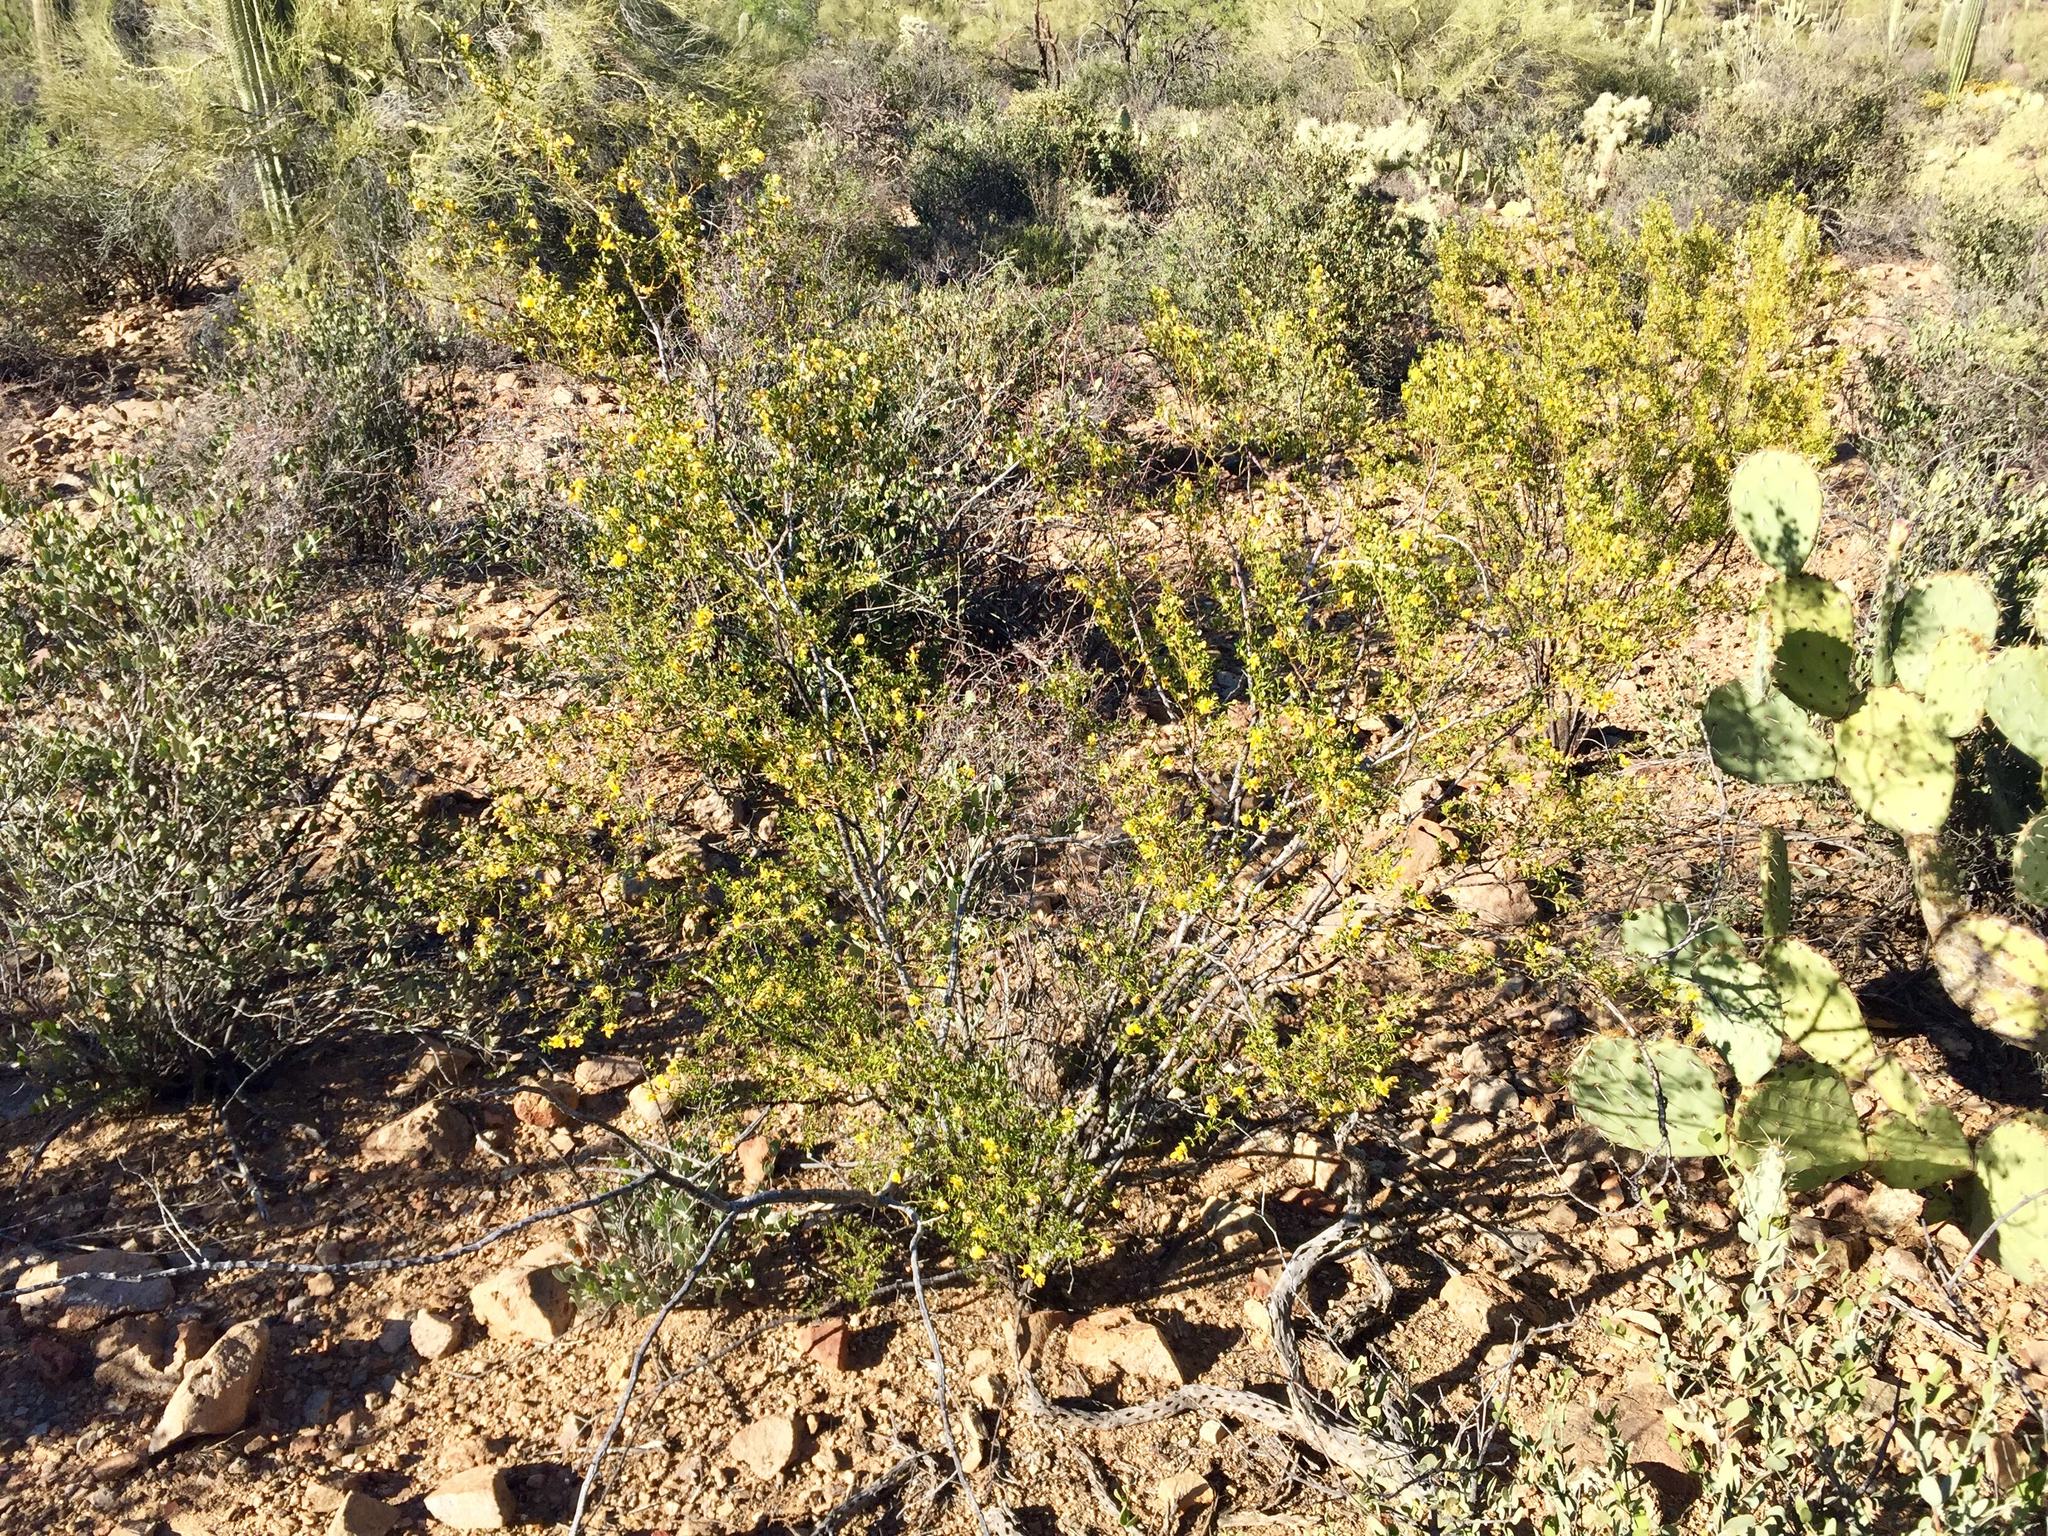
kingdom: Plantae
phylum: Tracheophyta
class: Magnoliopsida
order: Zygophyllales
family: Zygophyllaceae
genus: Larrea
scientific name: Larrea tridentata
